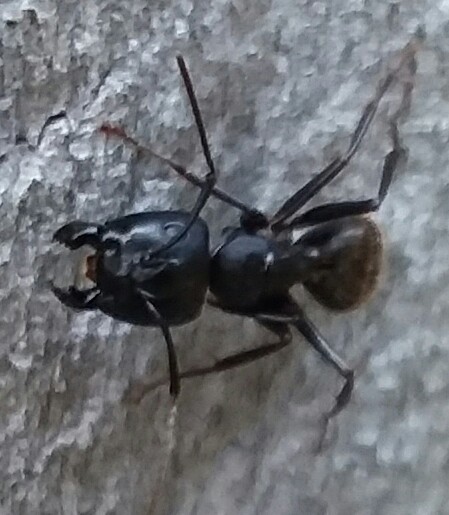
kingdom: Animalia
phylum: Arthropoda
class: Insecta
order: Hymenoptera
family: Formicidae
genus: Camponotus
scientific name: Camponotus pennsylvanicus
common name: Black carpenter ant
